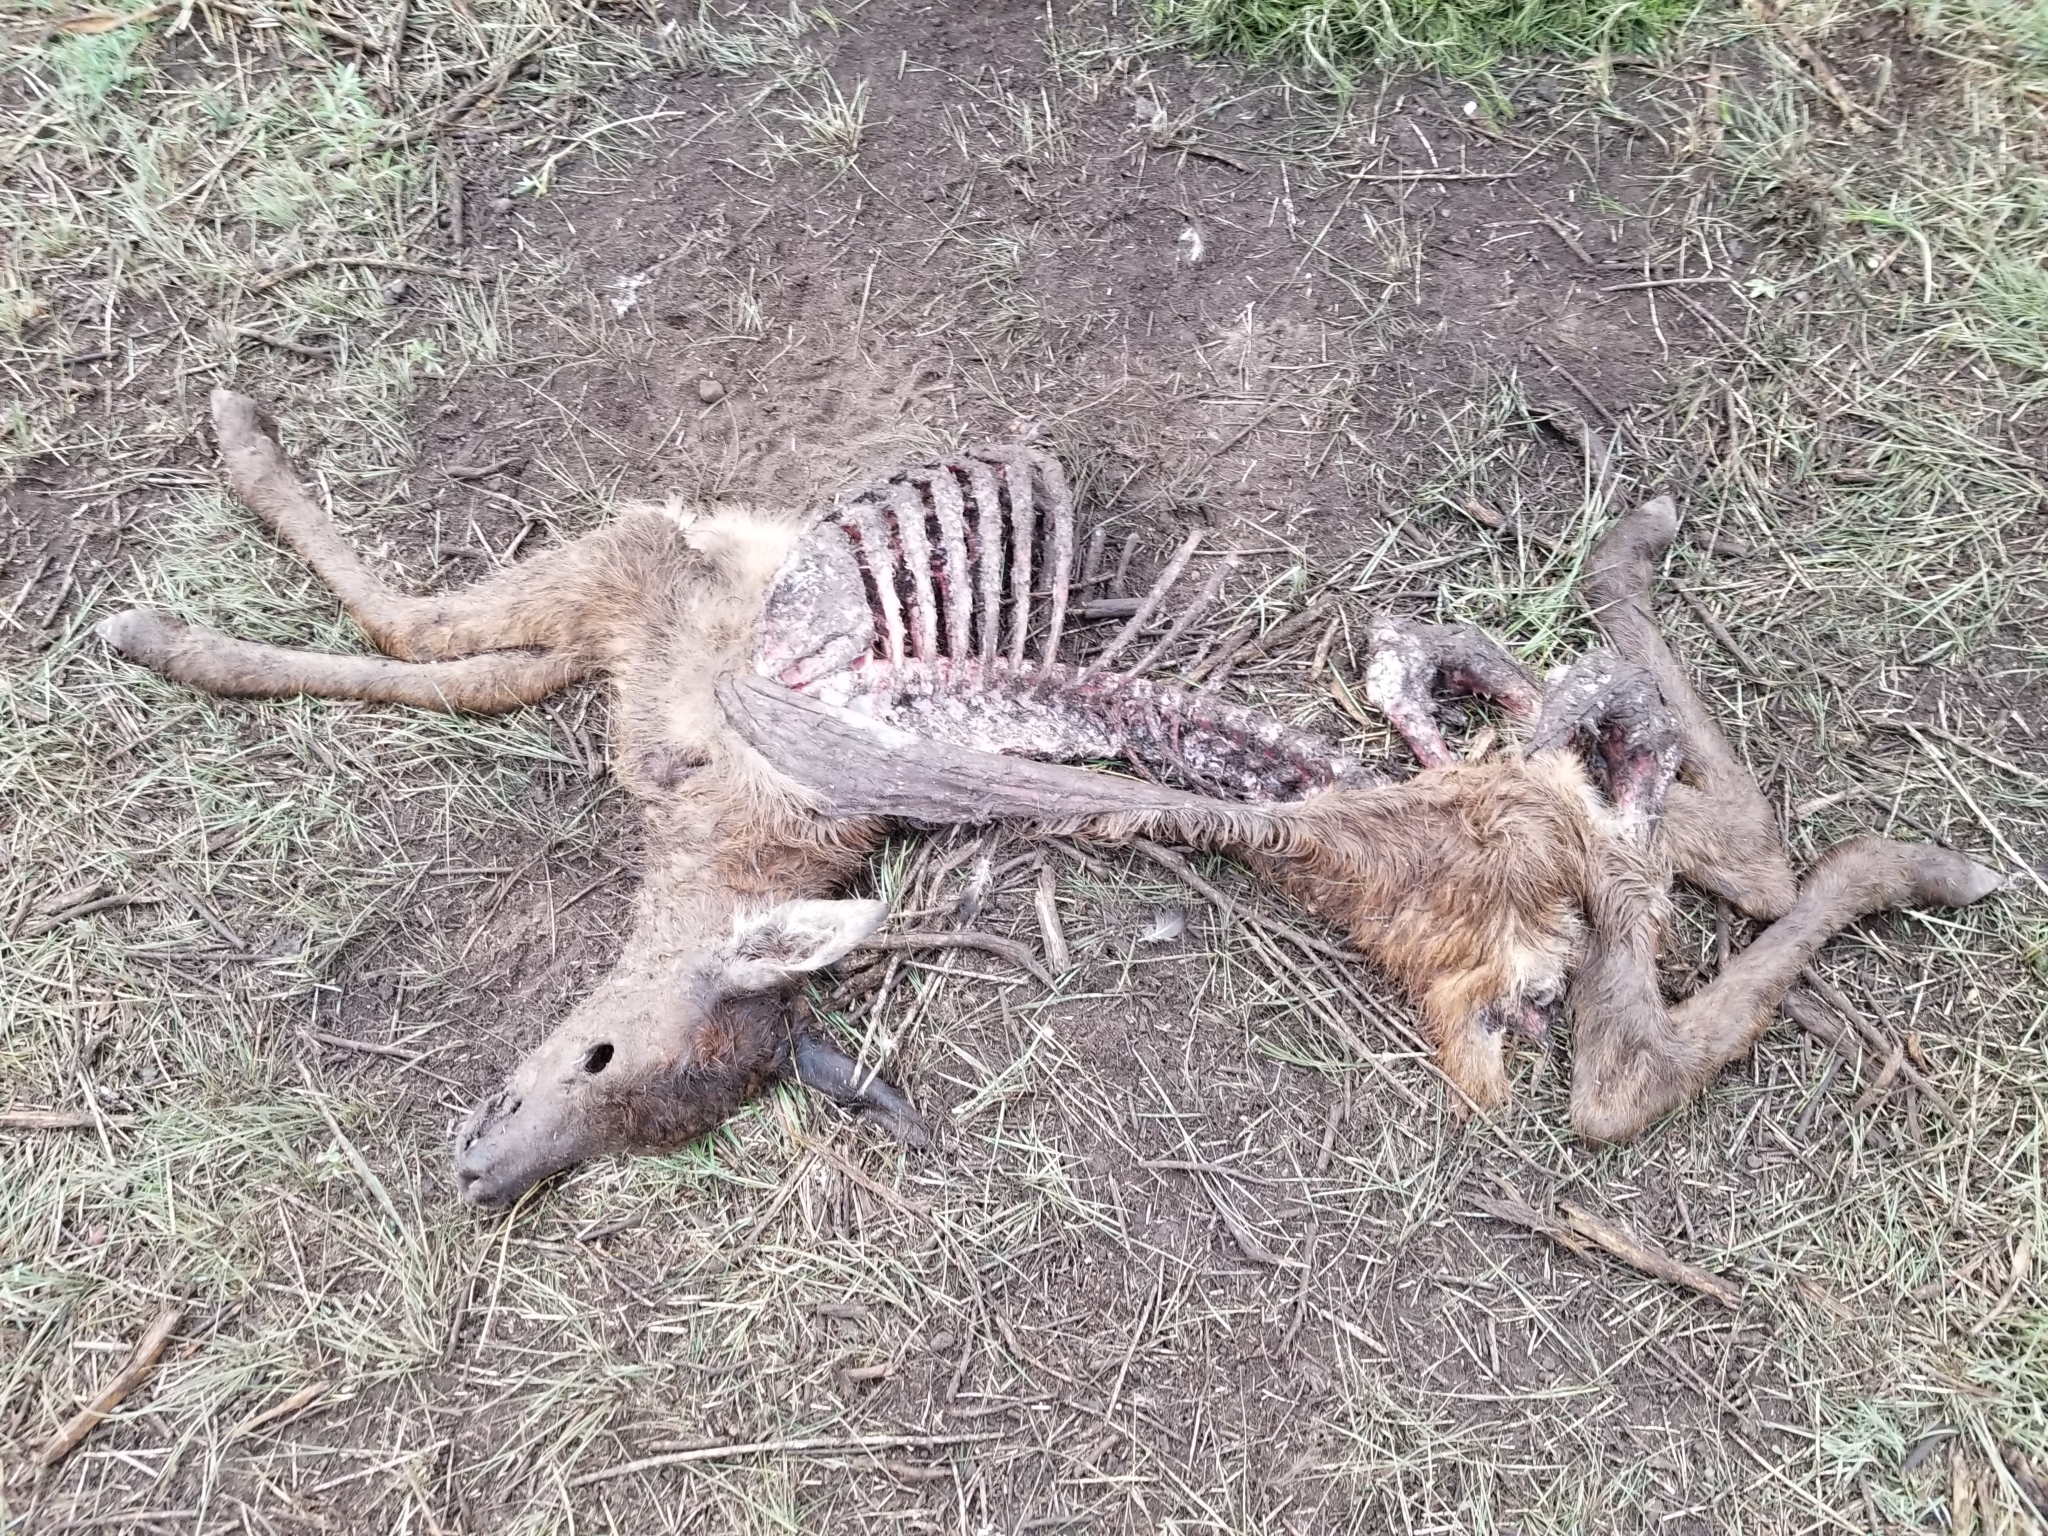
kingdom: Animalia
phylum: Chordata
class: Mammalia
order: Artiodactyla
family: Cervidae
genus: Cervus
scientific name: Cervus elaphus
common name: Red deer
